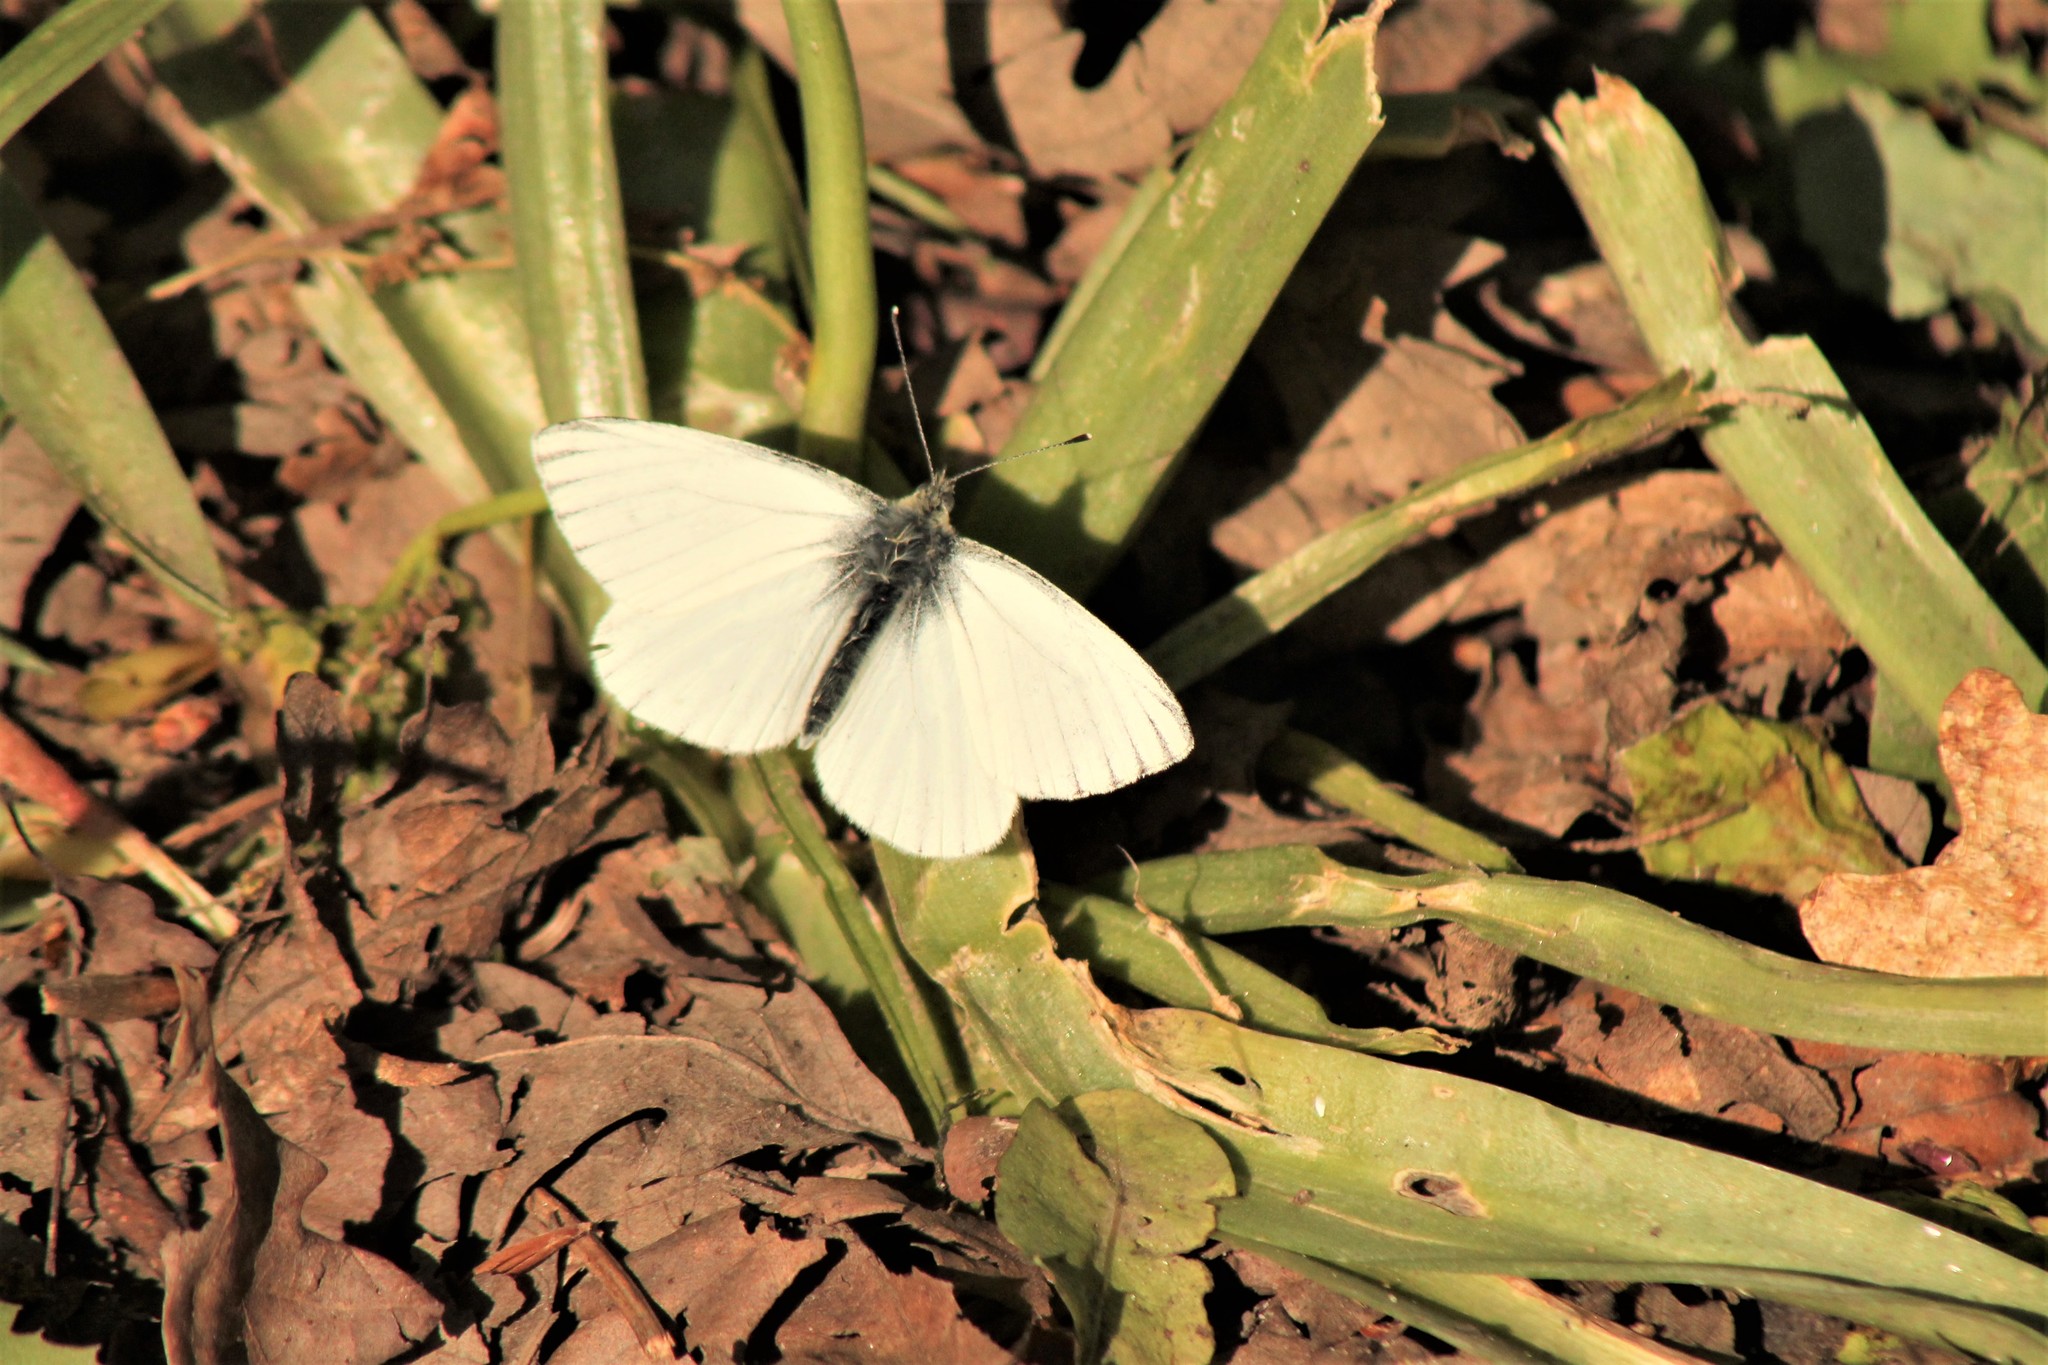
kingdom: Animalia
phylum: Arthropoda
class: Insecta
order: Lepidoptera
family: Pieridae
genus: Pieris
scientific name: Pieris napi
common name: Green-veined white
